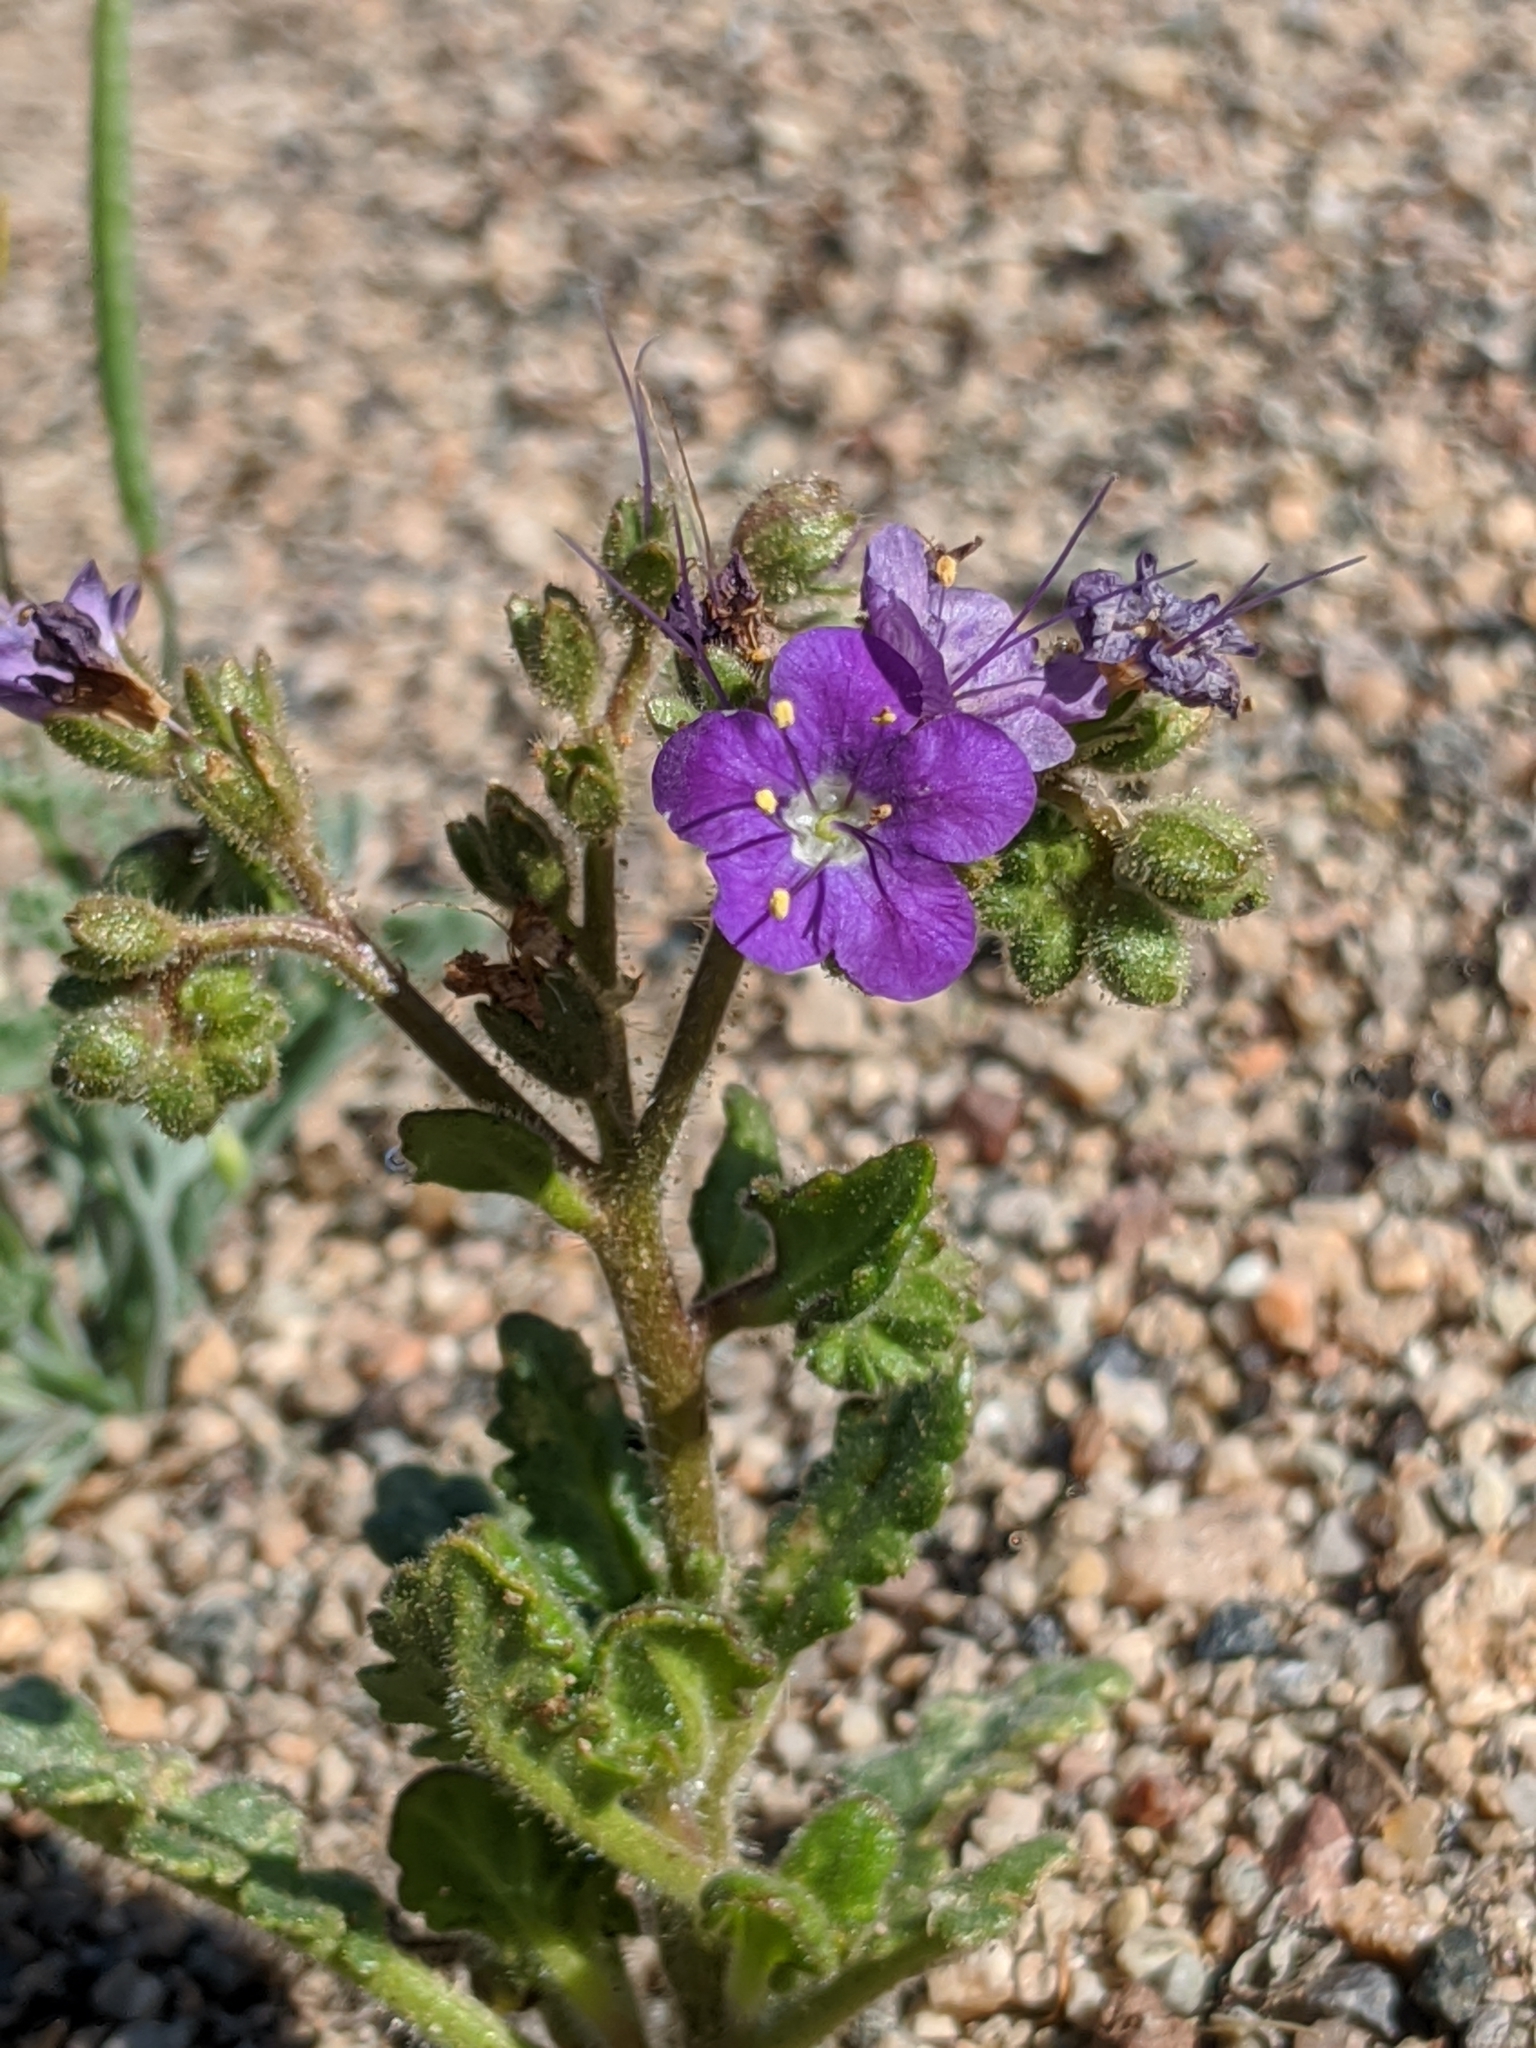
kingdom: Plantae
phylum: Tracheophyta
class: Magnoliopsida
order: Boraginales
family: Hydrophyllaceae
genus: Phacelia
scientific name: Phacelia crenulata
